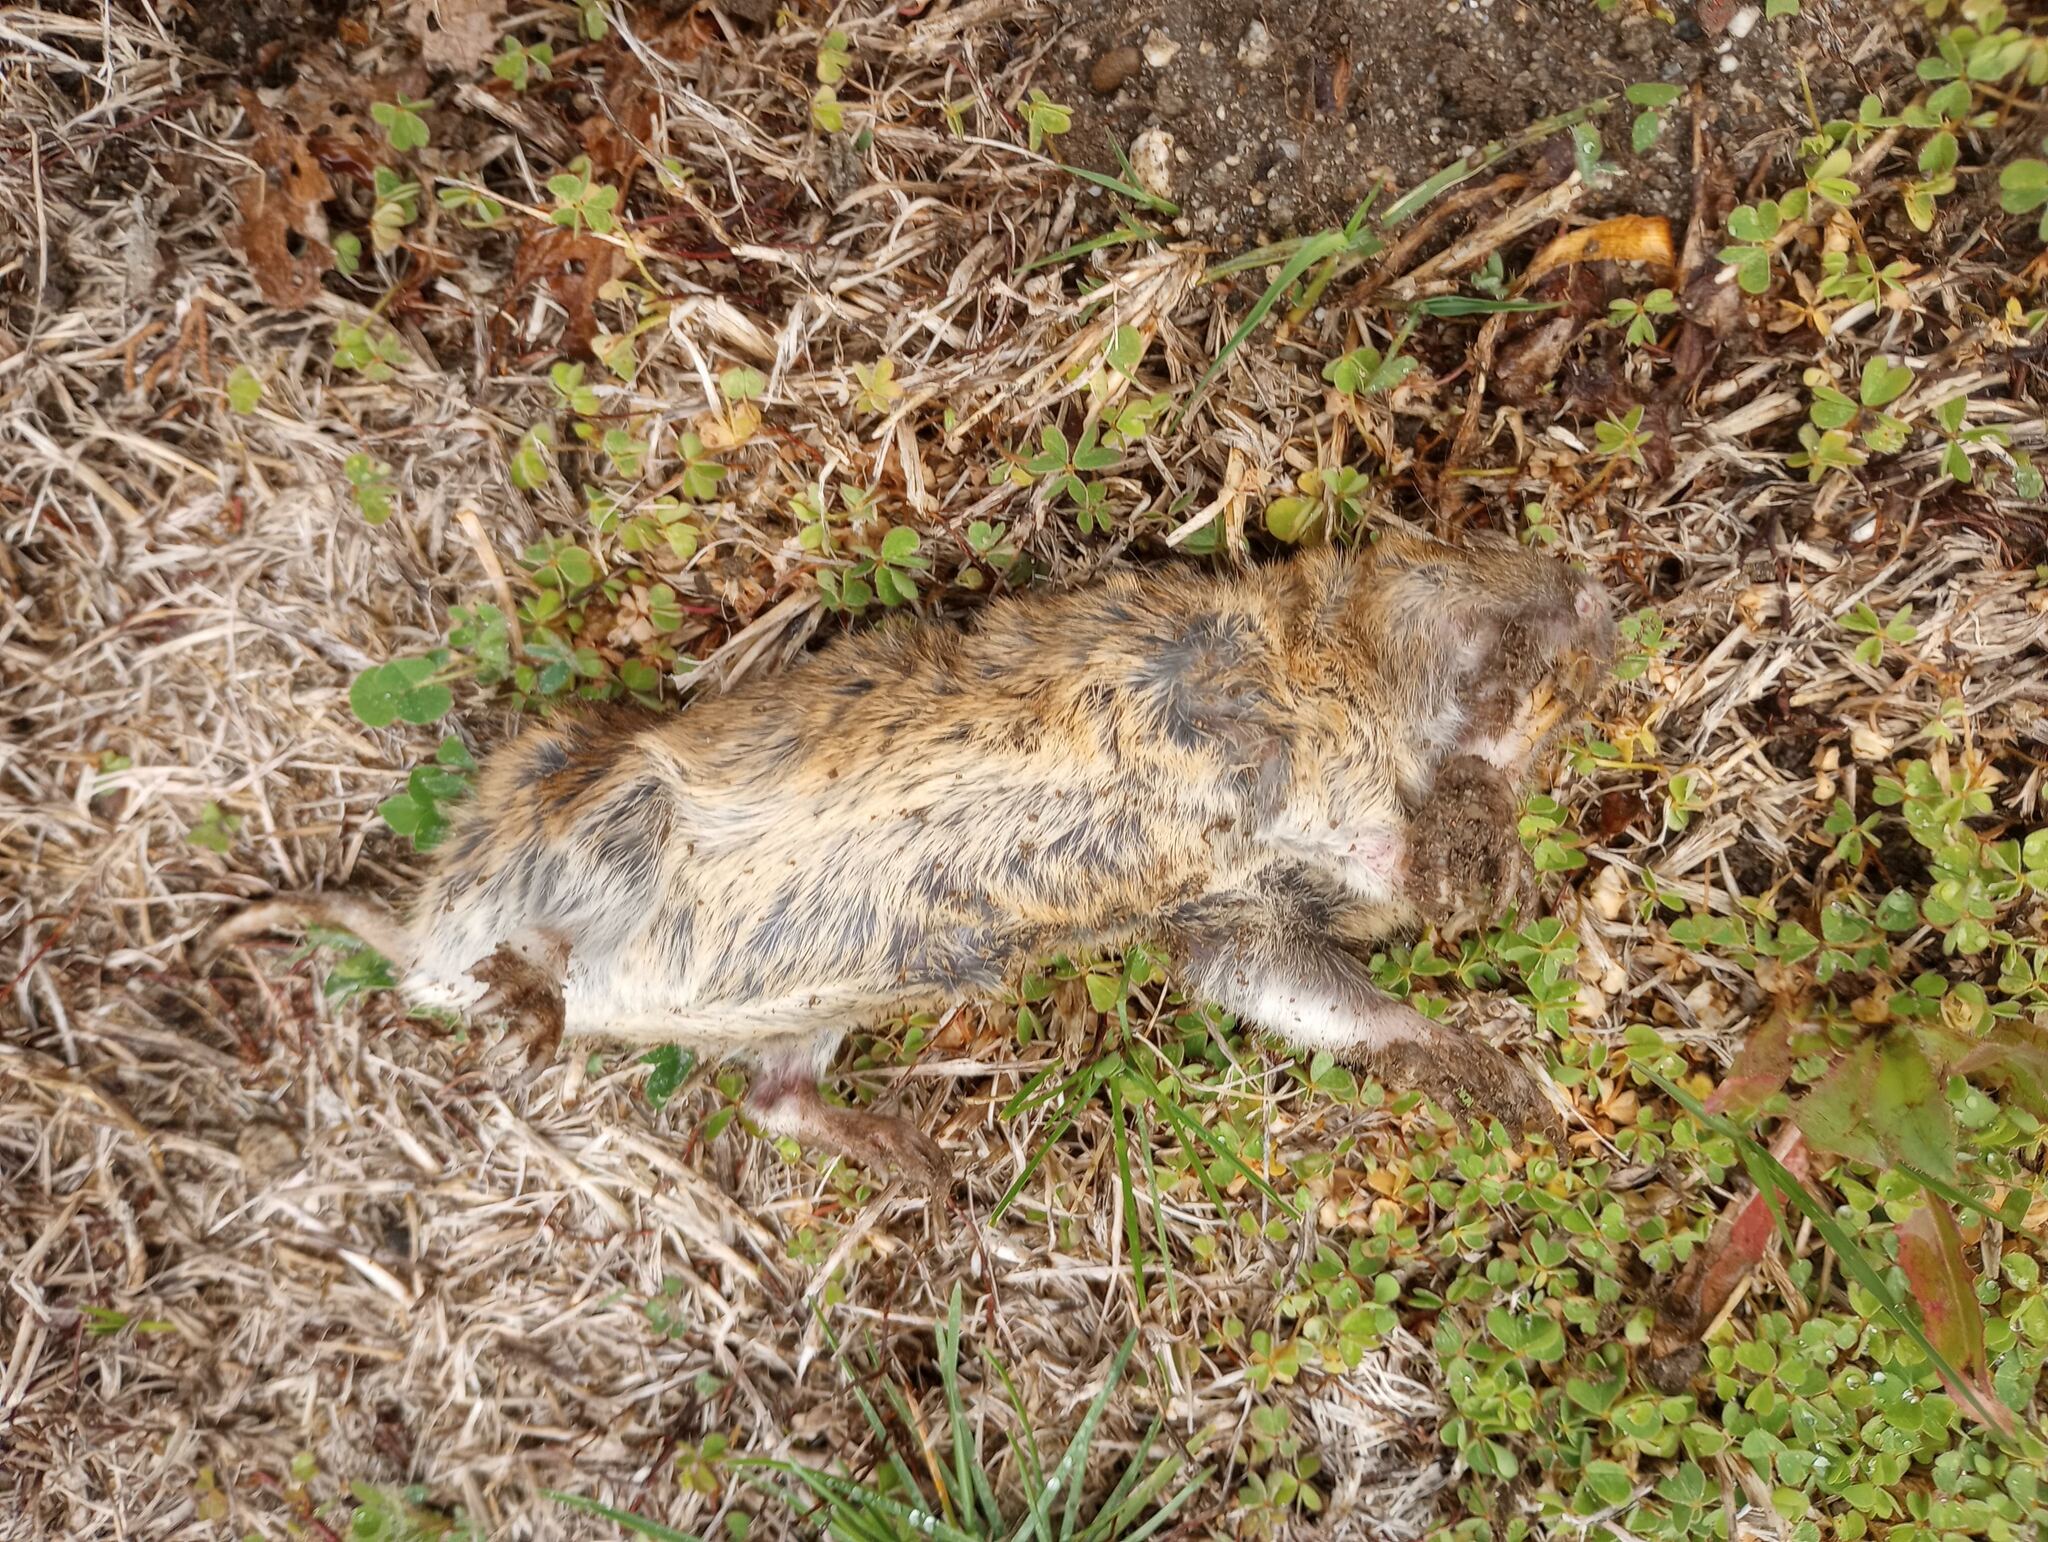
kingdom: Animalia
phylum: Chordata
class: Mammalia
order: Rodentia
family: Geomyidae
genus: Thomomys
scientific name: Thomomys bottae
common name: Botta's pocket gopher
